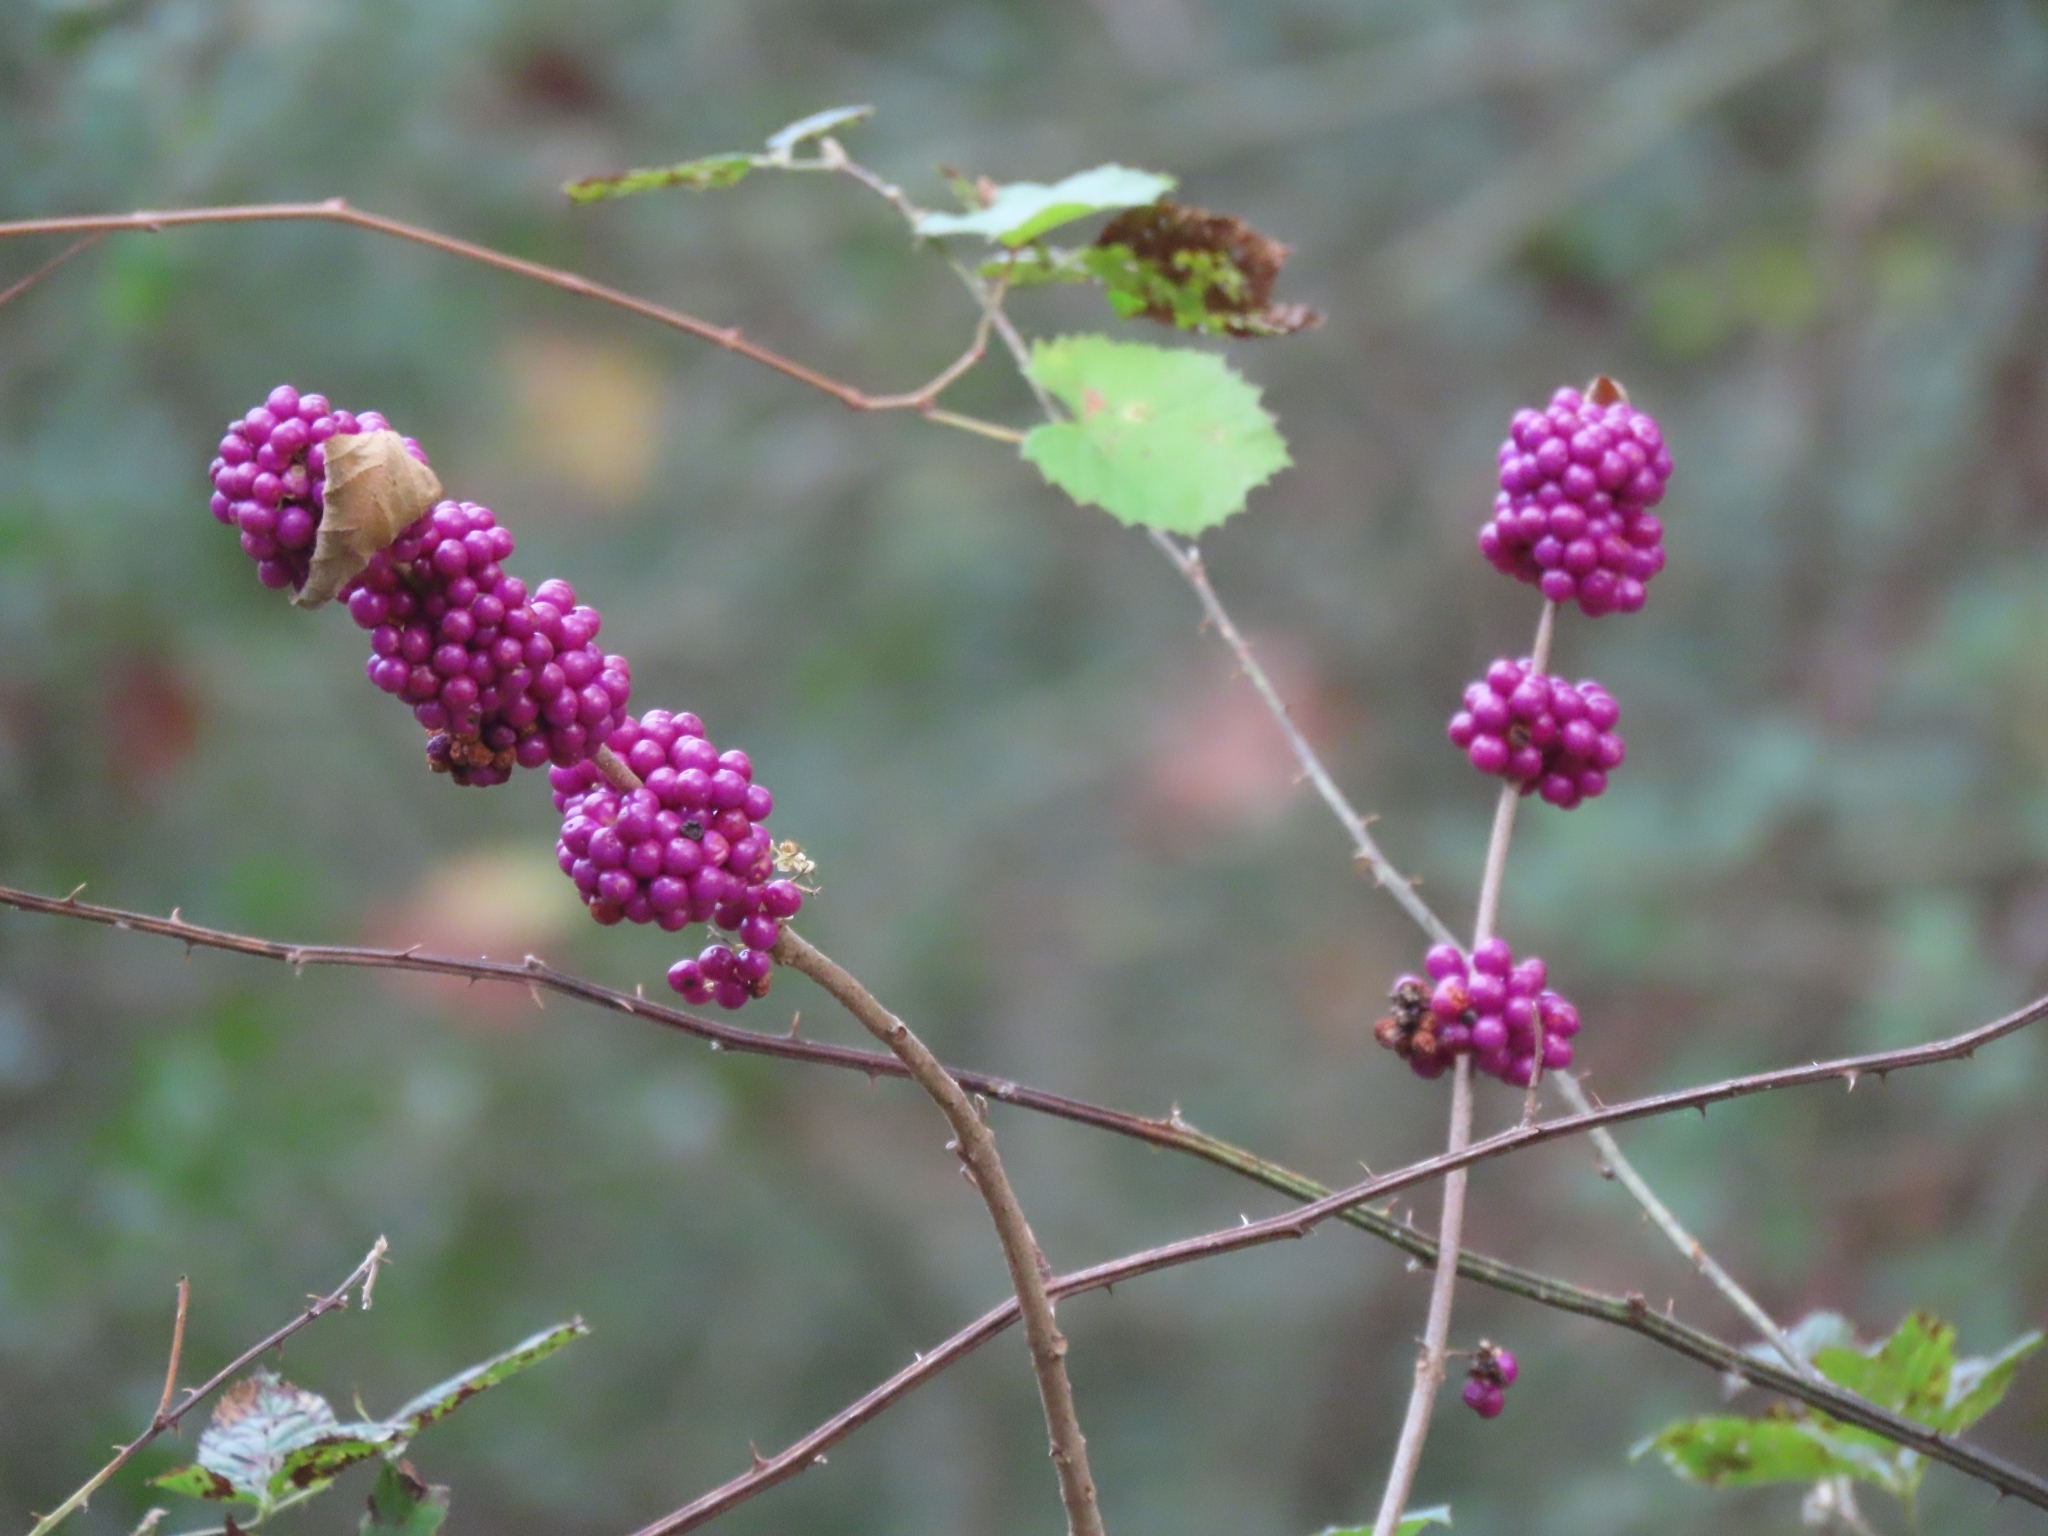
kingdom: Plantae
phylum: Tracheophyta
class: Magnoliopsida
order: Lamiales
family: Lamiaceae
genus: Callicarpa
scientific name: Callicarpa americana
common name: American beautyberry
